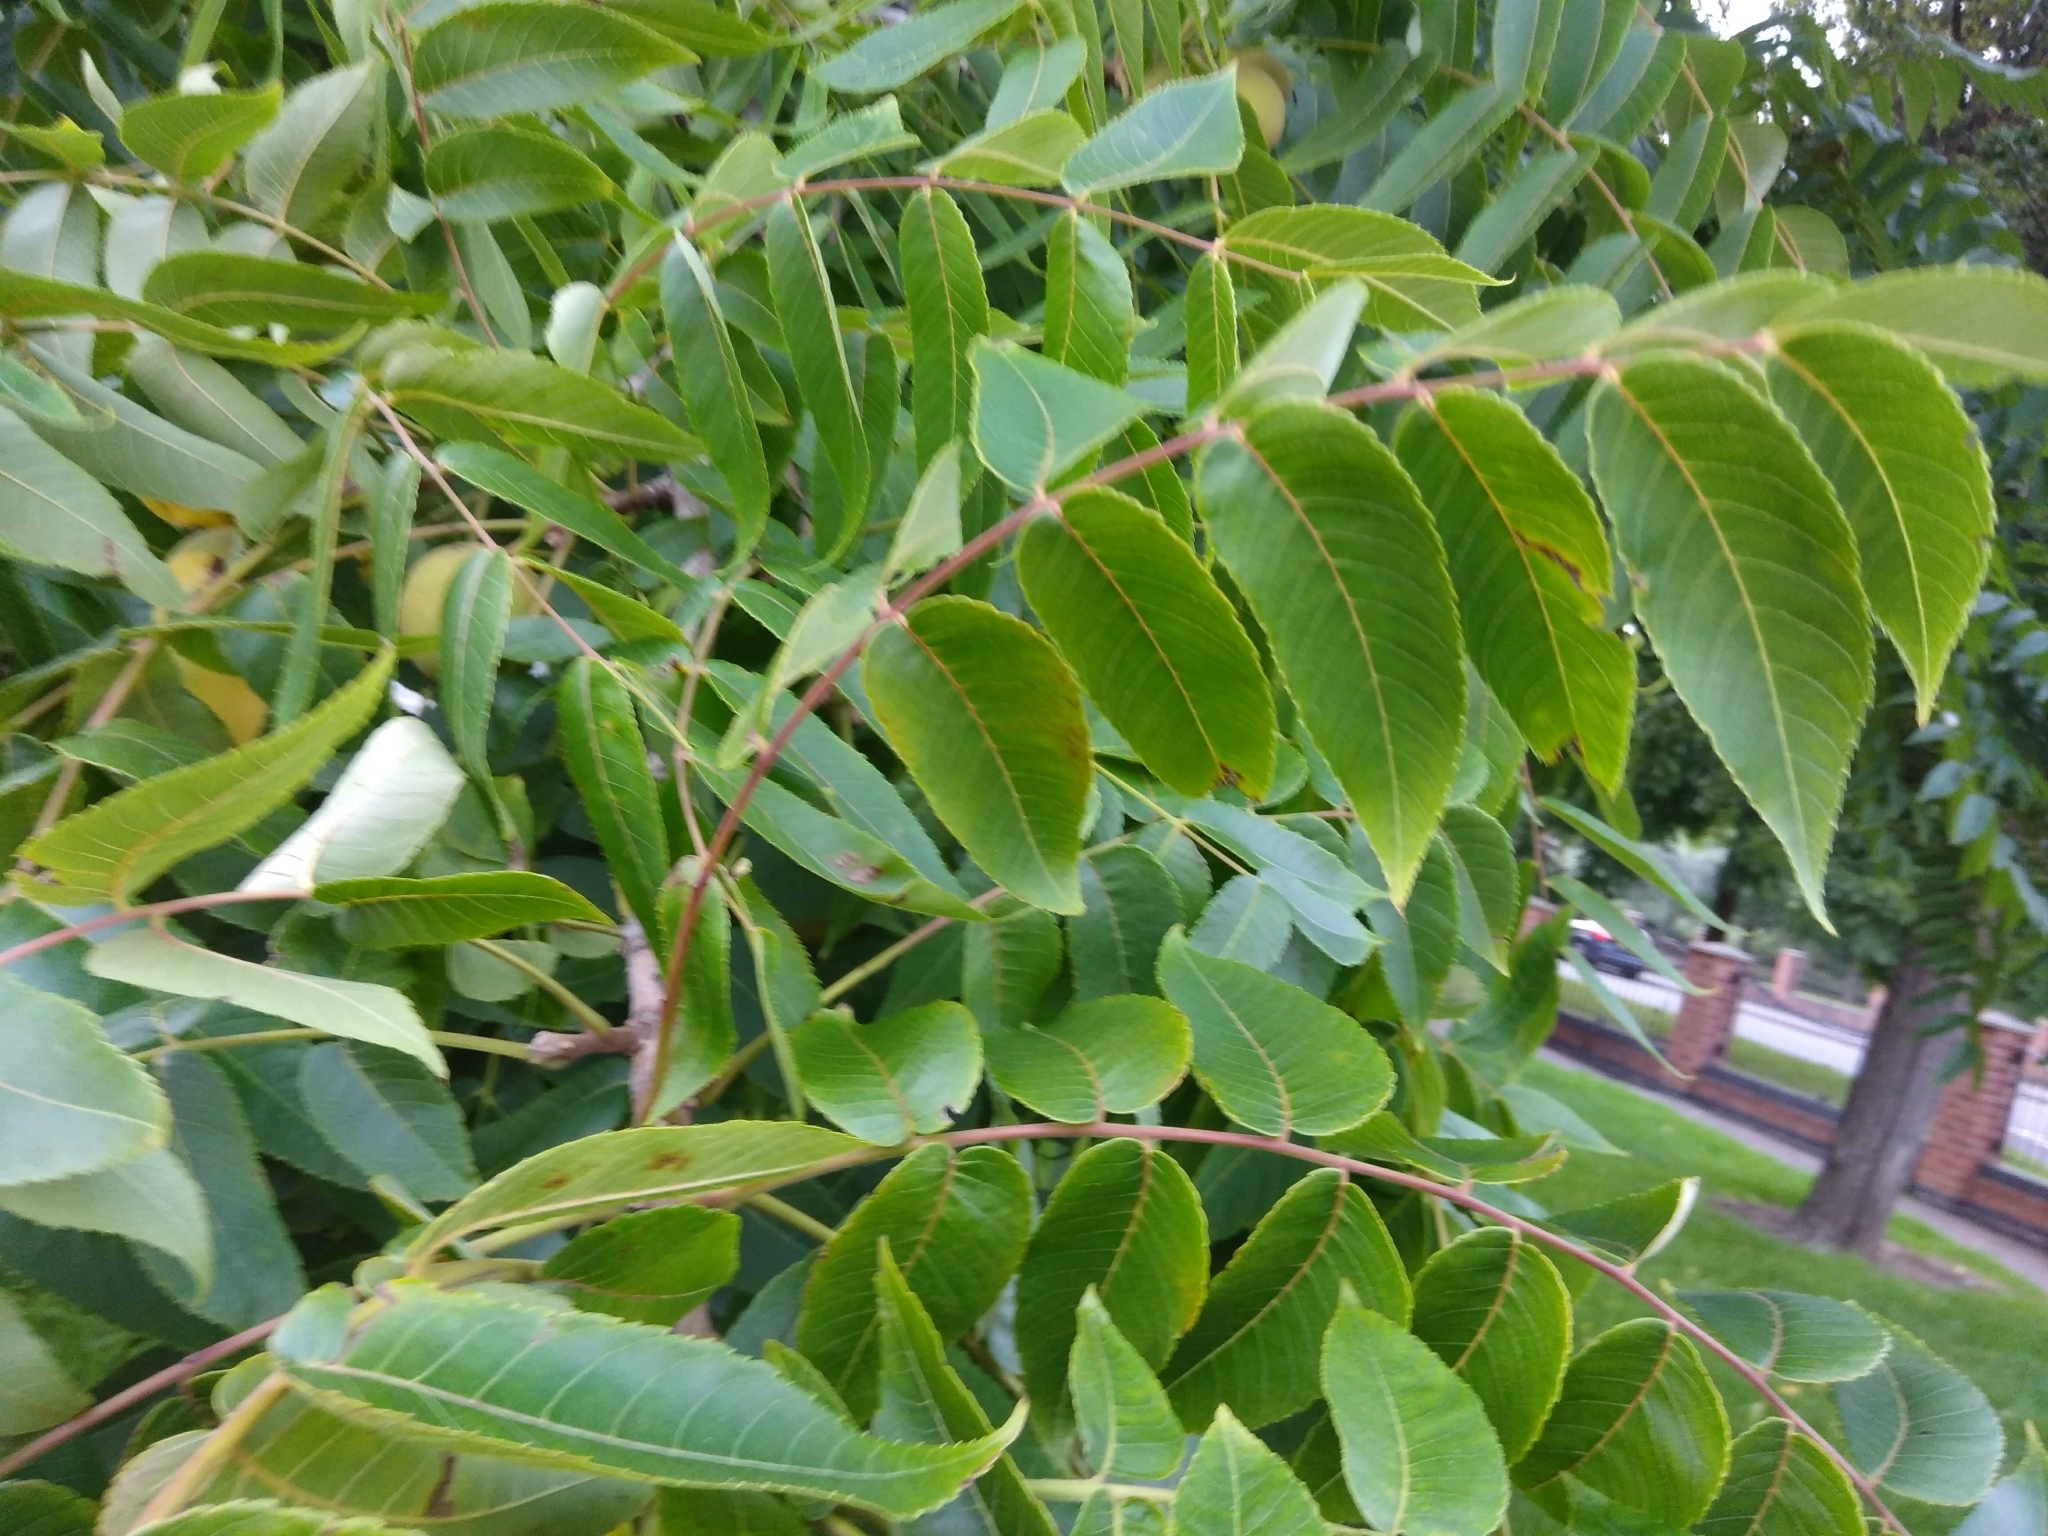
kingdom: Plantae
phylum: Tracheophyta
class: Magnoliopsida
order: Fagales
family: Juglandaceae
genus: Juglans
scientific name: Juglans nigra
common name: Black walnut
